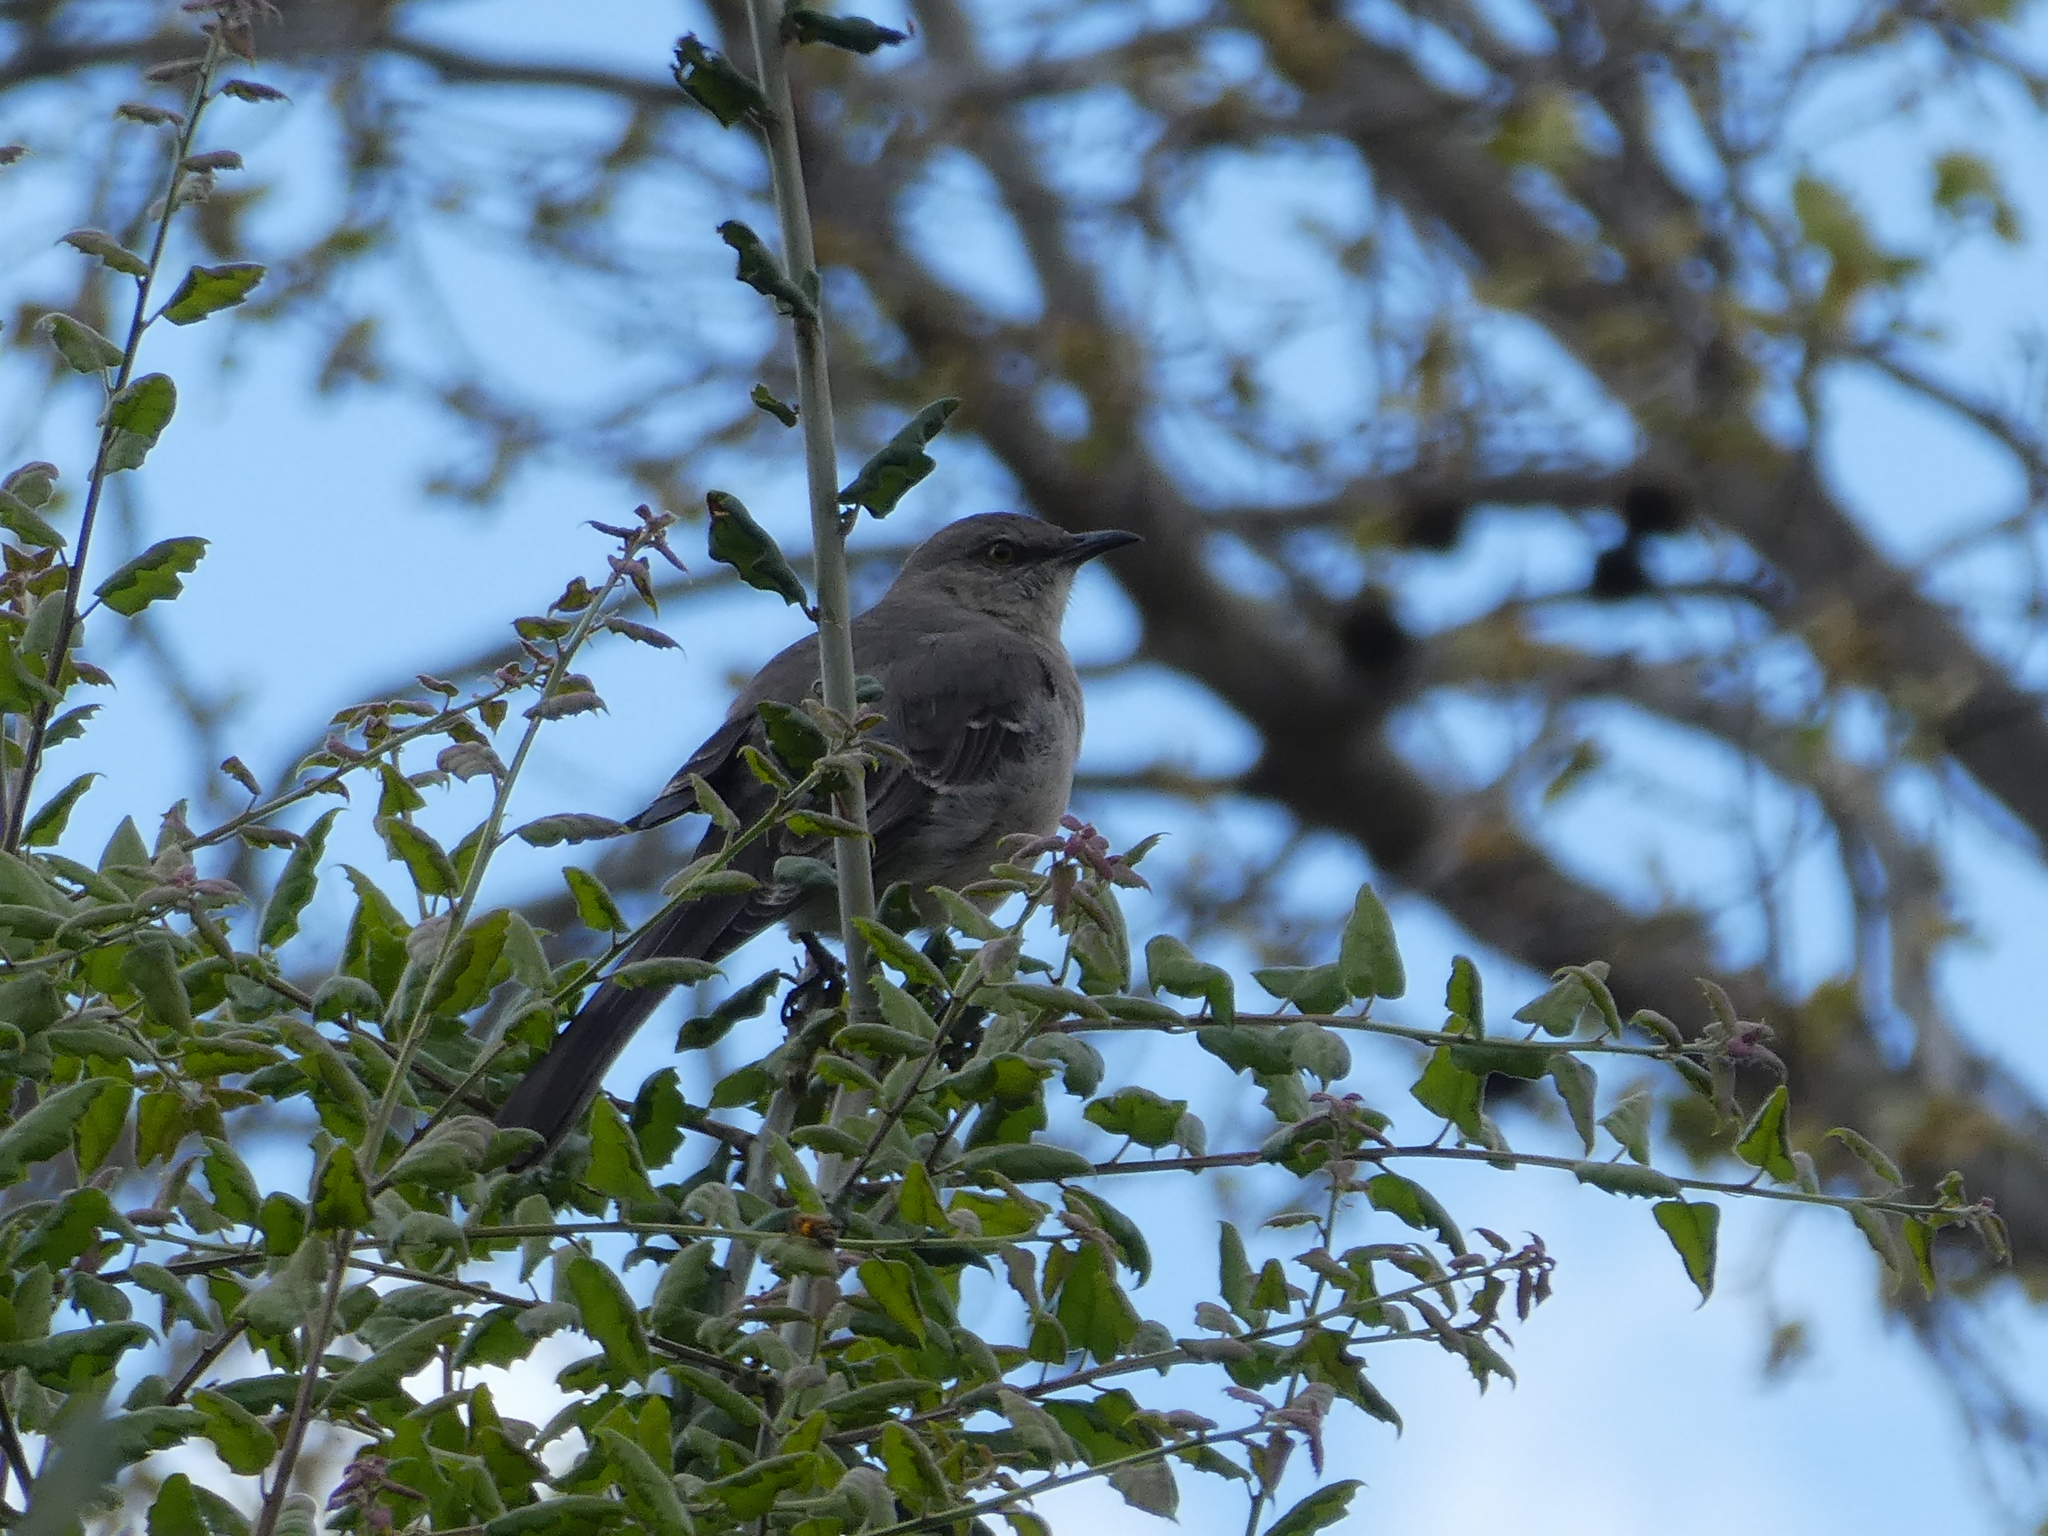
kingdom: Animalia
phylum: Chordata
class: Aves
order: Passeriformes
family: Mimidae
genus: Mimus
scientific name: Mimus polyglottos
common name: Northern mockingbird
